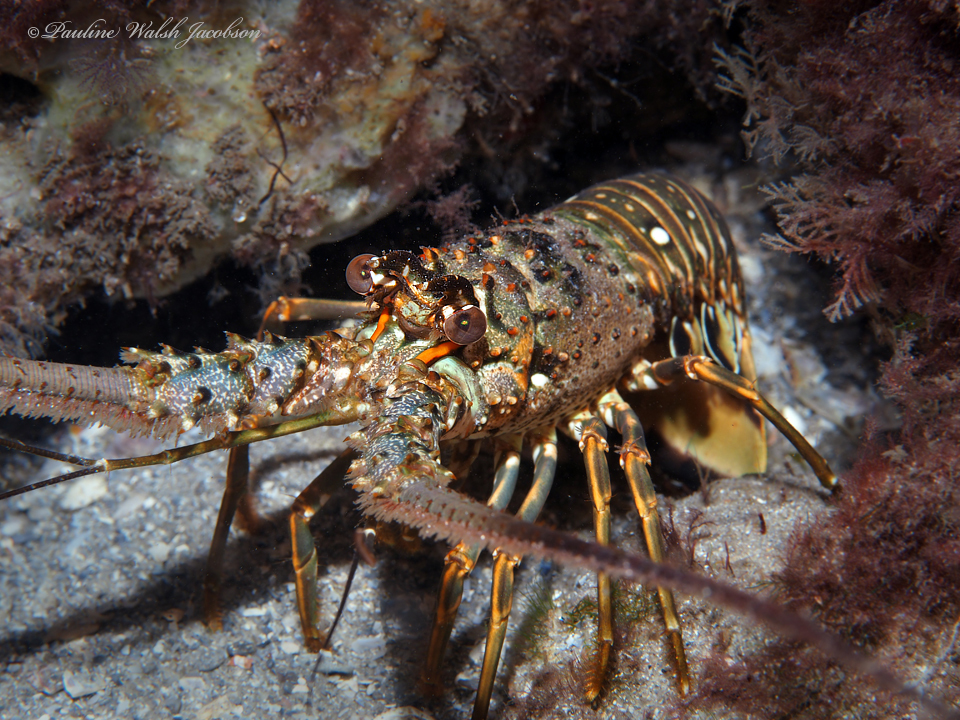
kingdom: Animalia
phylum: Arthropoda
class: Malacostraca
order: Decapoda
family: Palinuridae
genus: Panulirus
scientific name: Panulirus argus
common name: Caribbean spiny lobster
